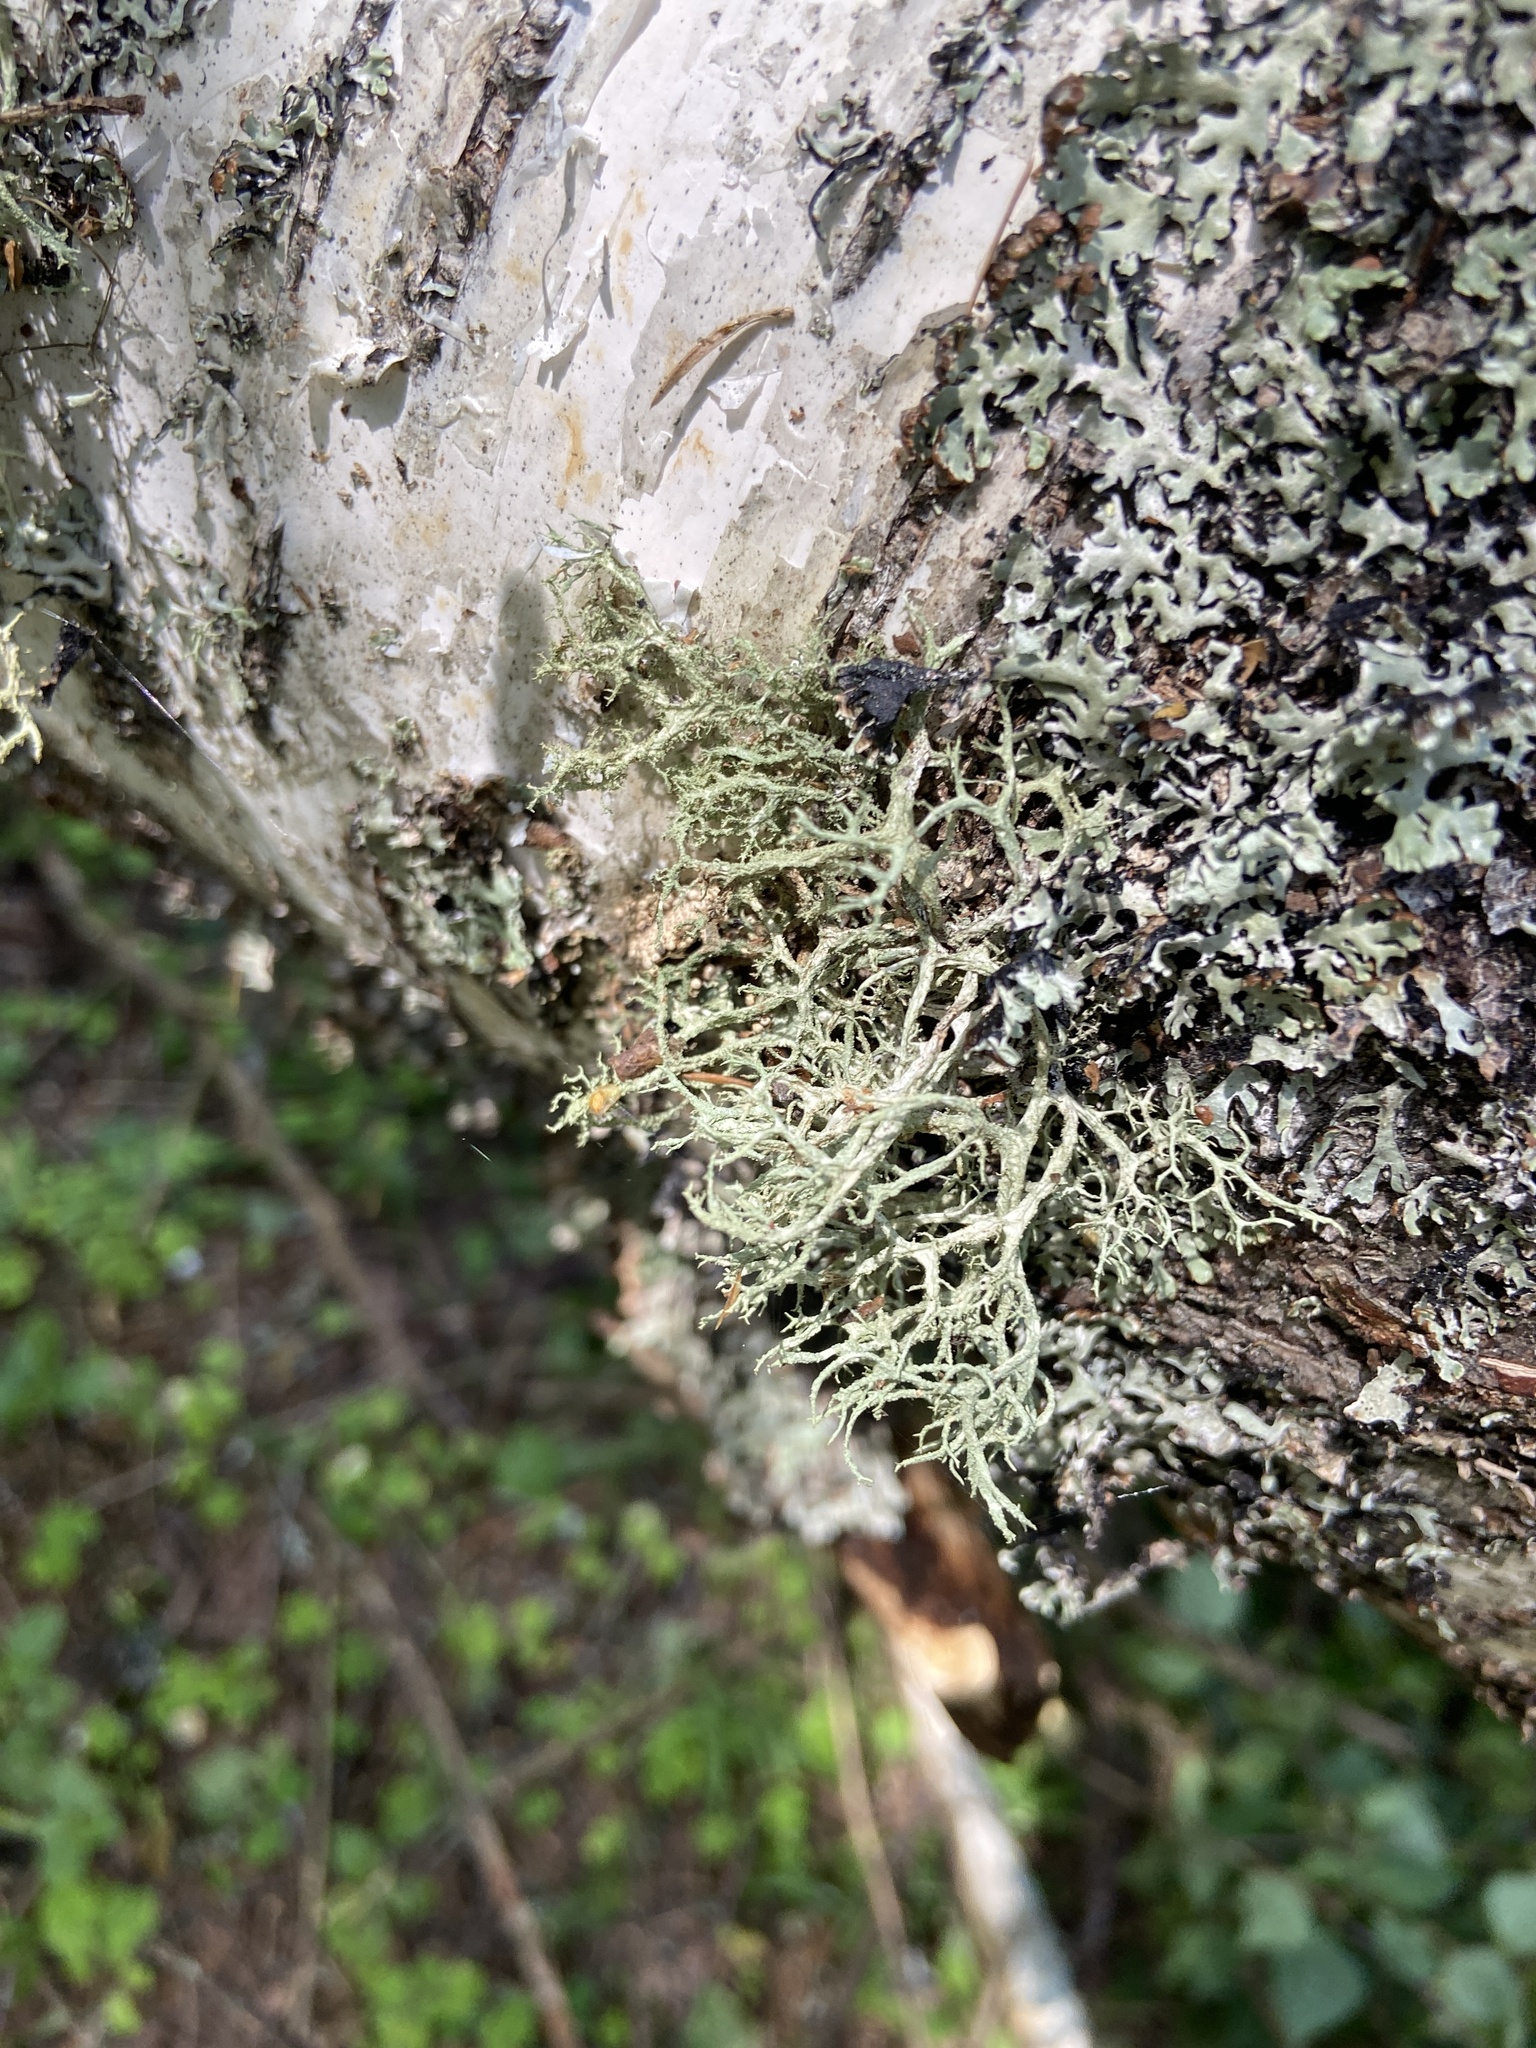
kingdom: Fungi
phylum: Ascomycota
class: Lecanoromycetes
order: Lecanorales
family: Parmeliaceae
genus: Evernia
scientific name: Evernia mesomorpha
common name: Boreal oak moss lichen
